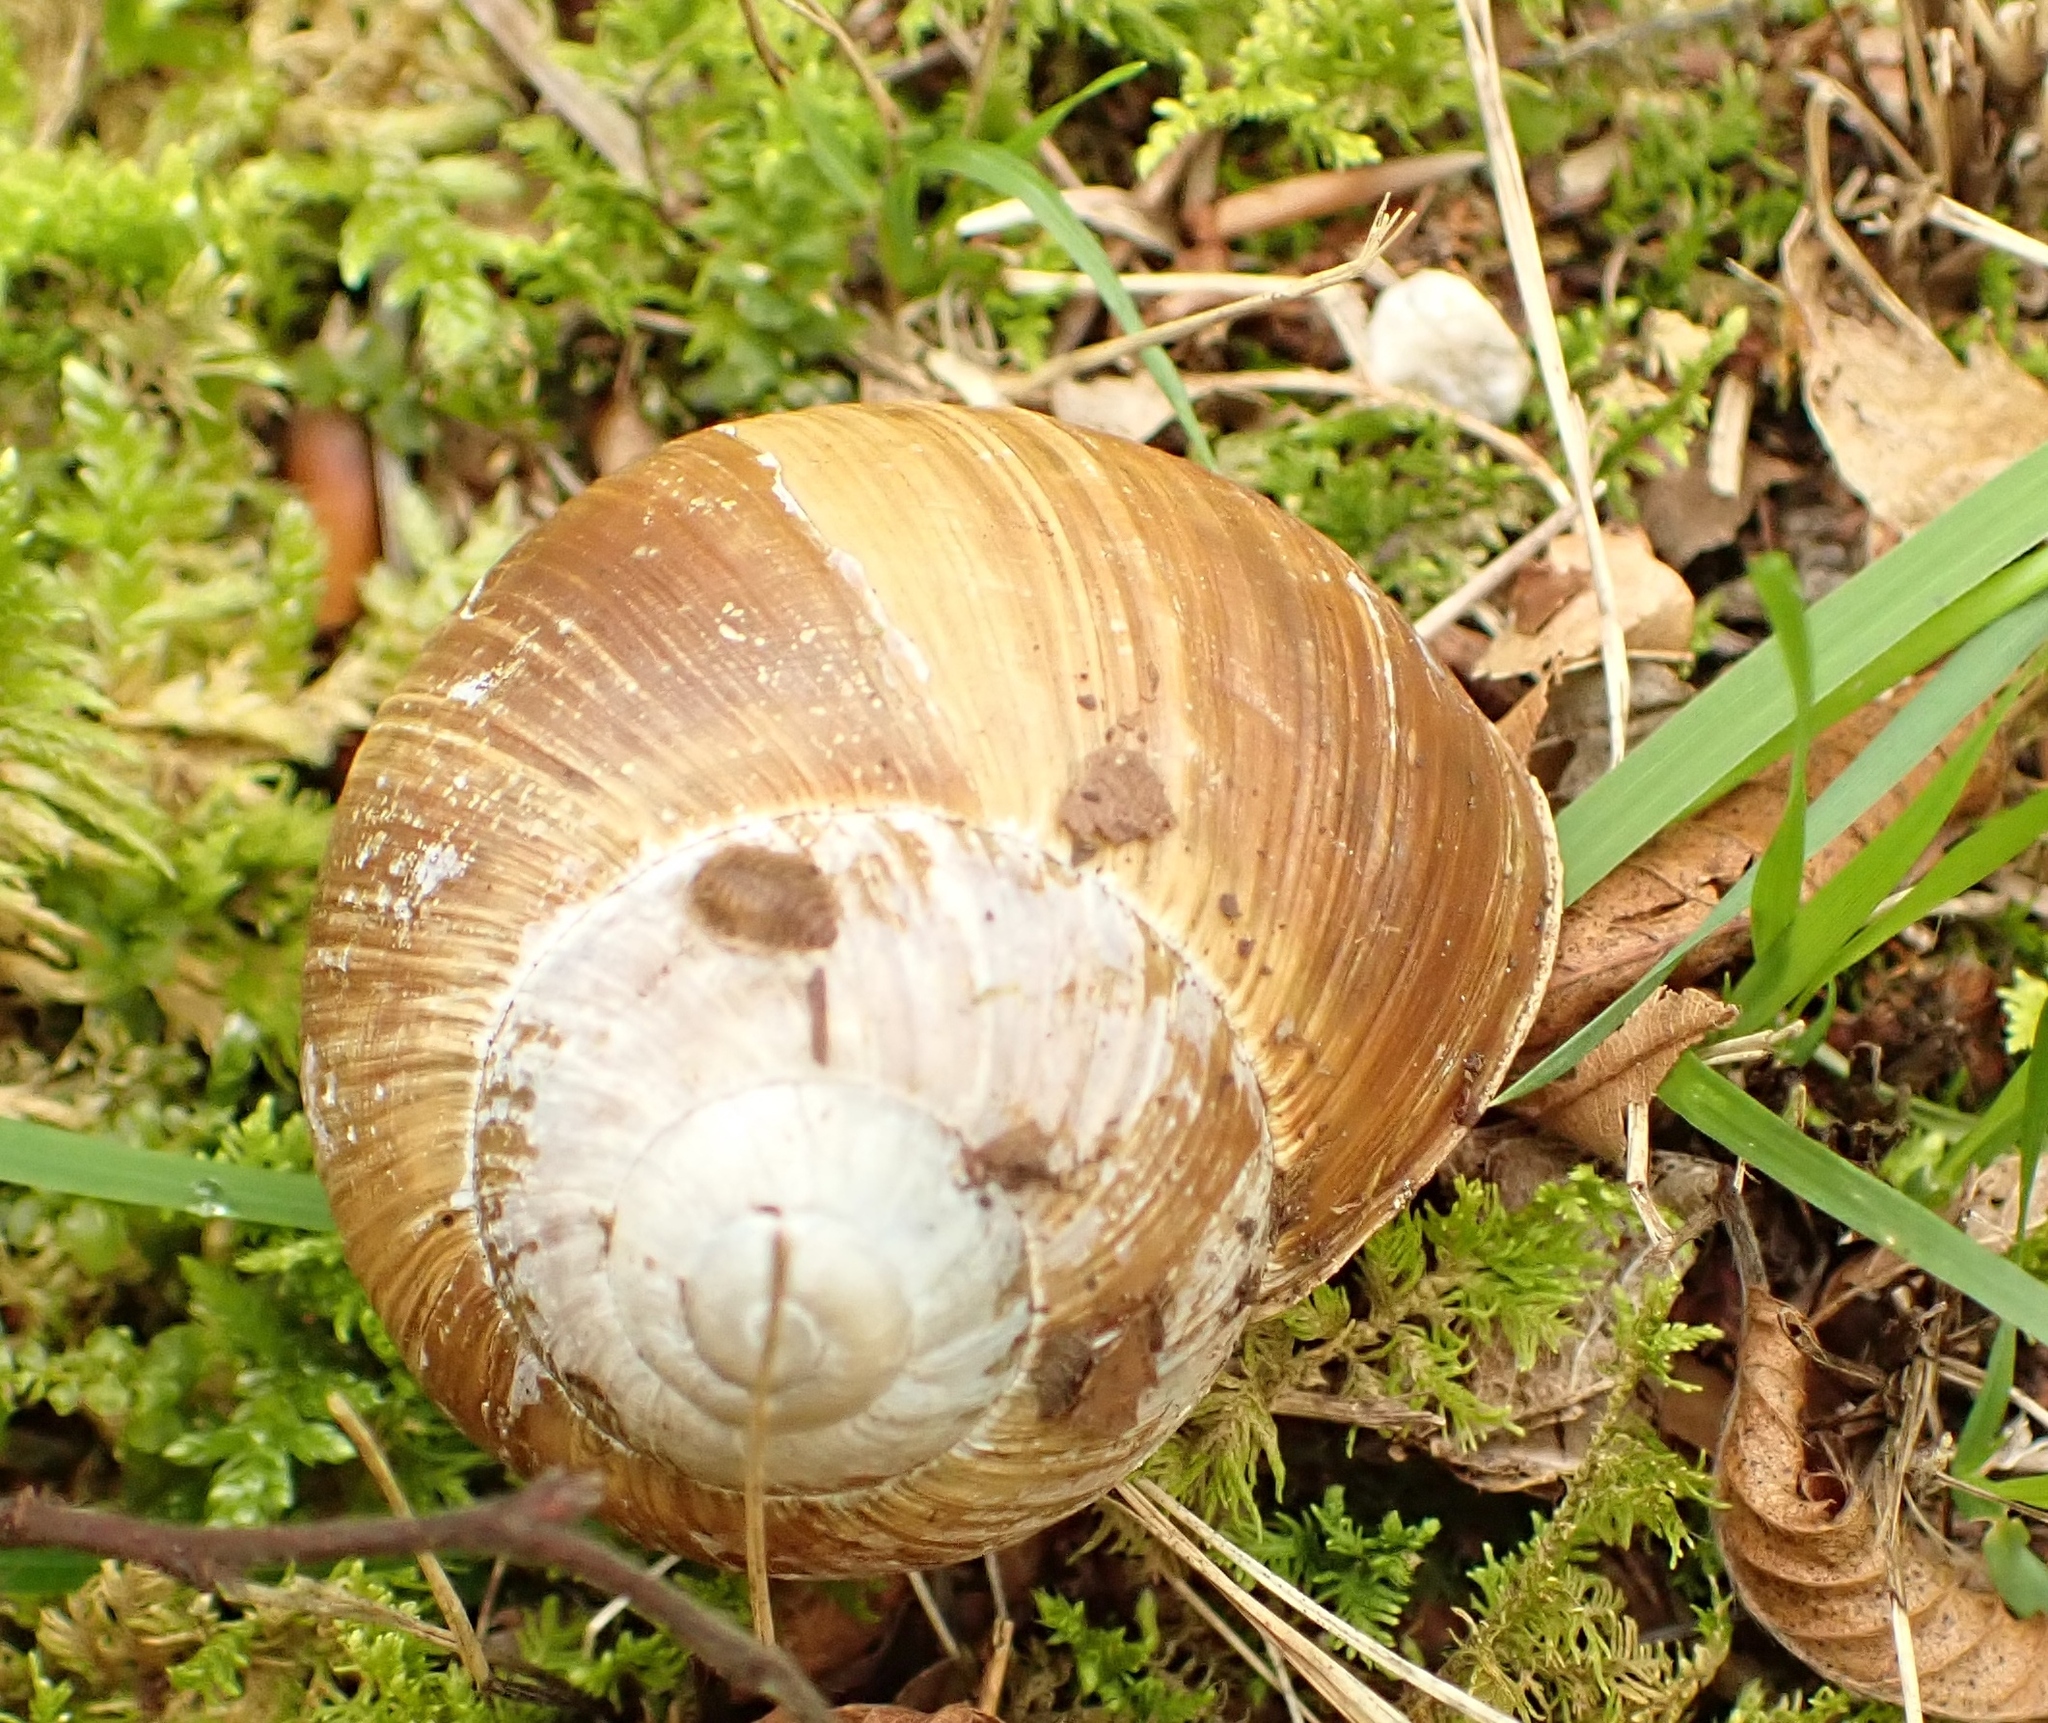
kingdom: Animalia
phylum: Mollusca
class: Gastropoda
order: Stylommatophora
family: Helicidae
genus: Helix
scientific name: Helix pomatia
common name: Roman snail
